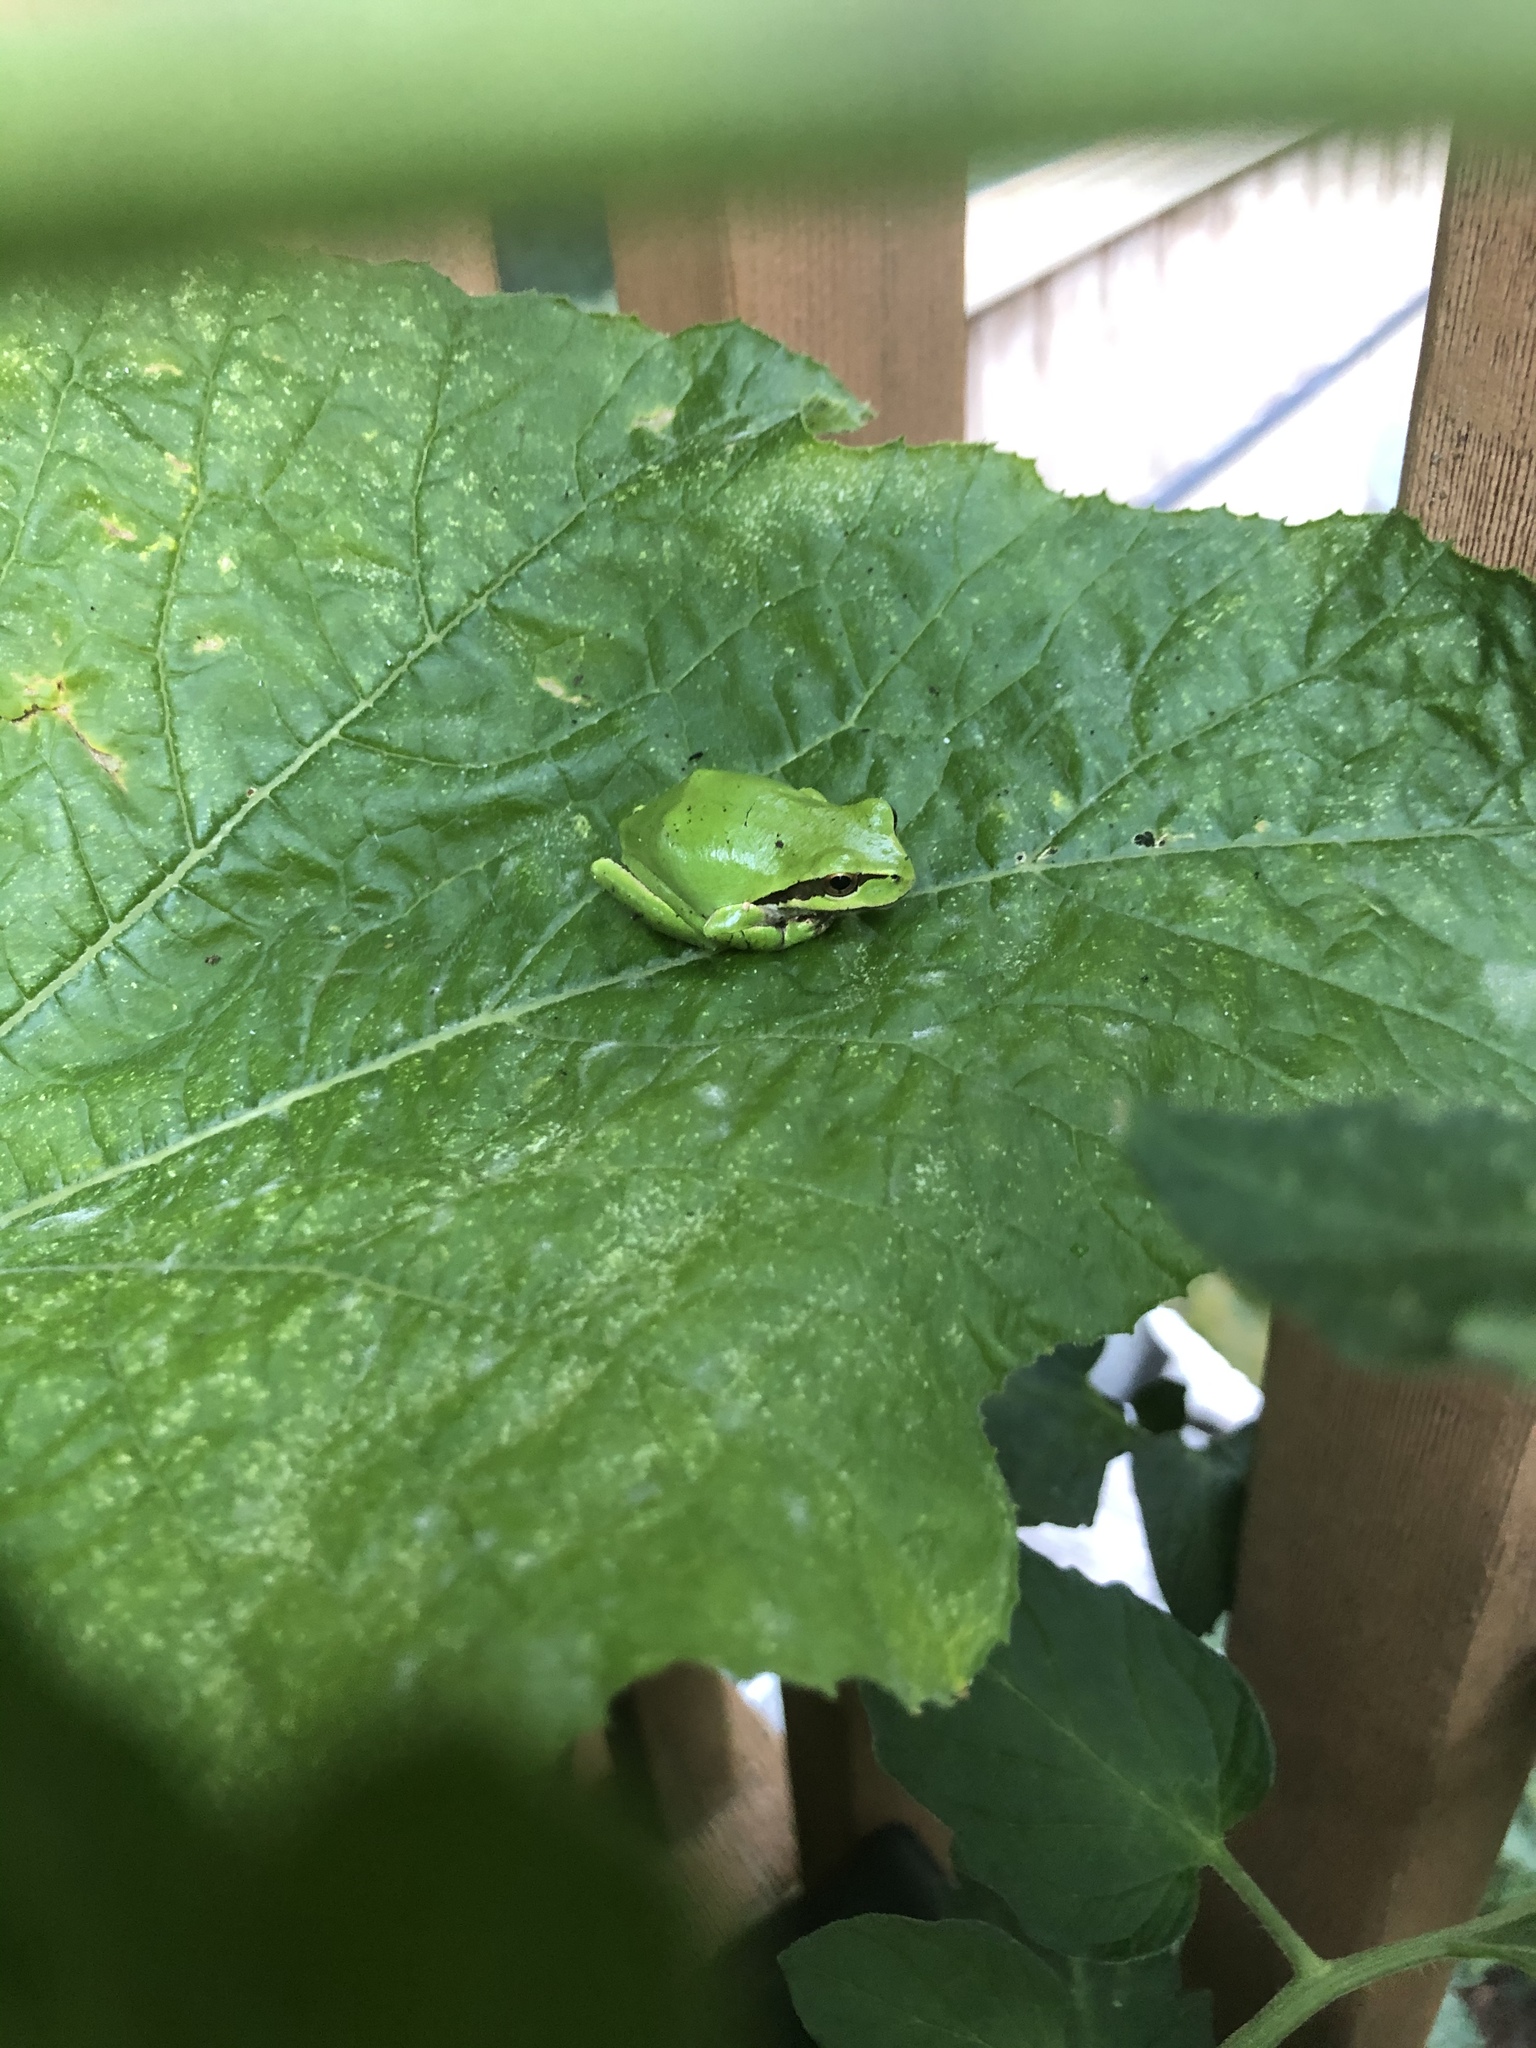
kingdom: Animalia
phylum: Chordata
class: Amphibia
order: Anura
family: Hylidae
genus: Pseudacris
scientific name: Pseudacris regilla
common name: Pacific chorus frog
